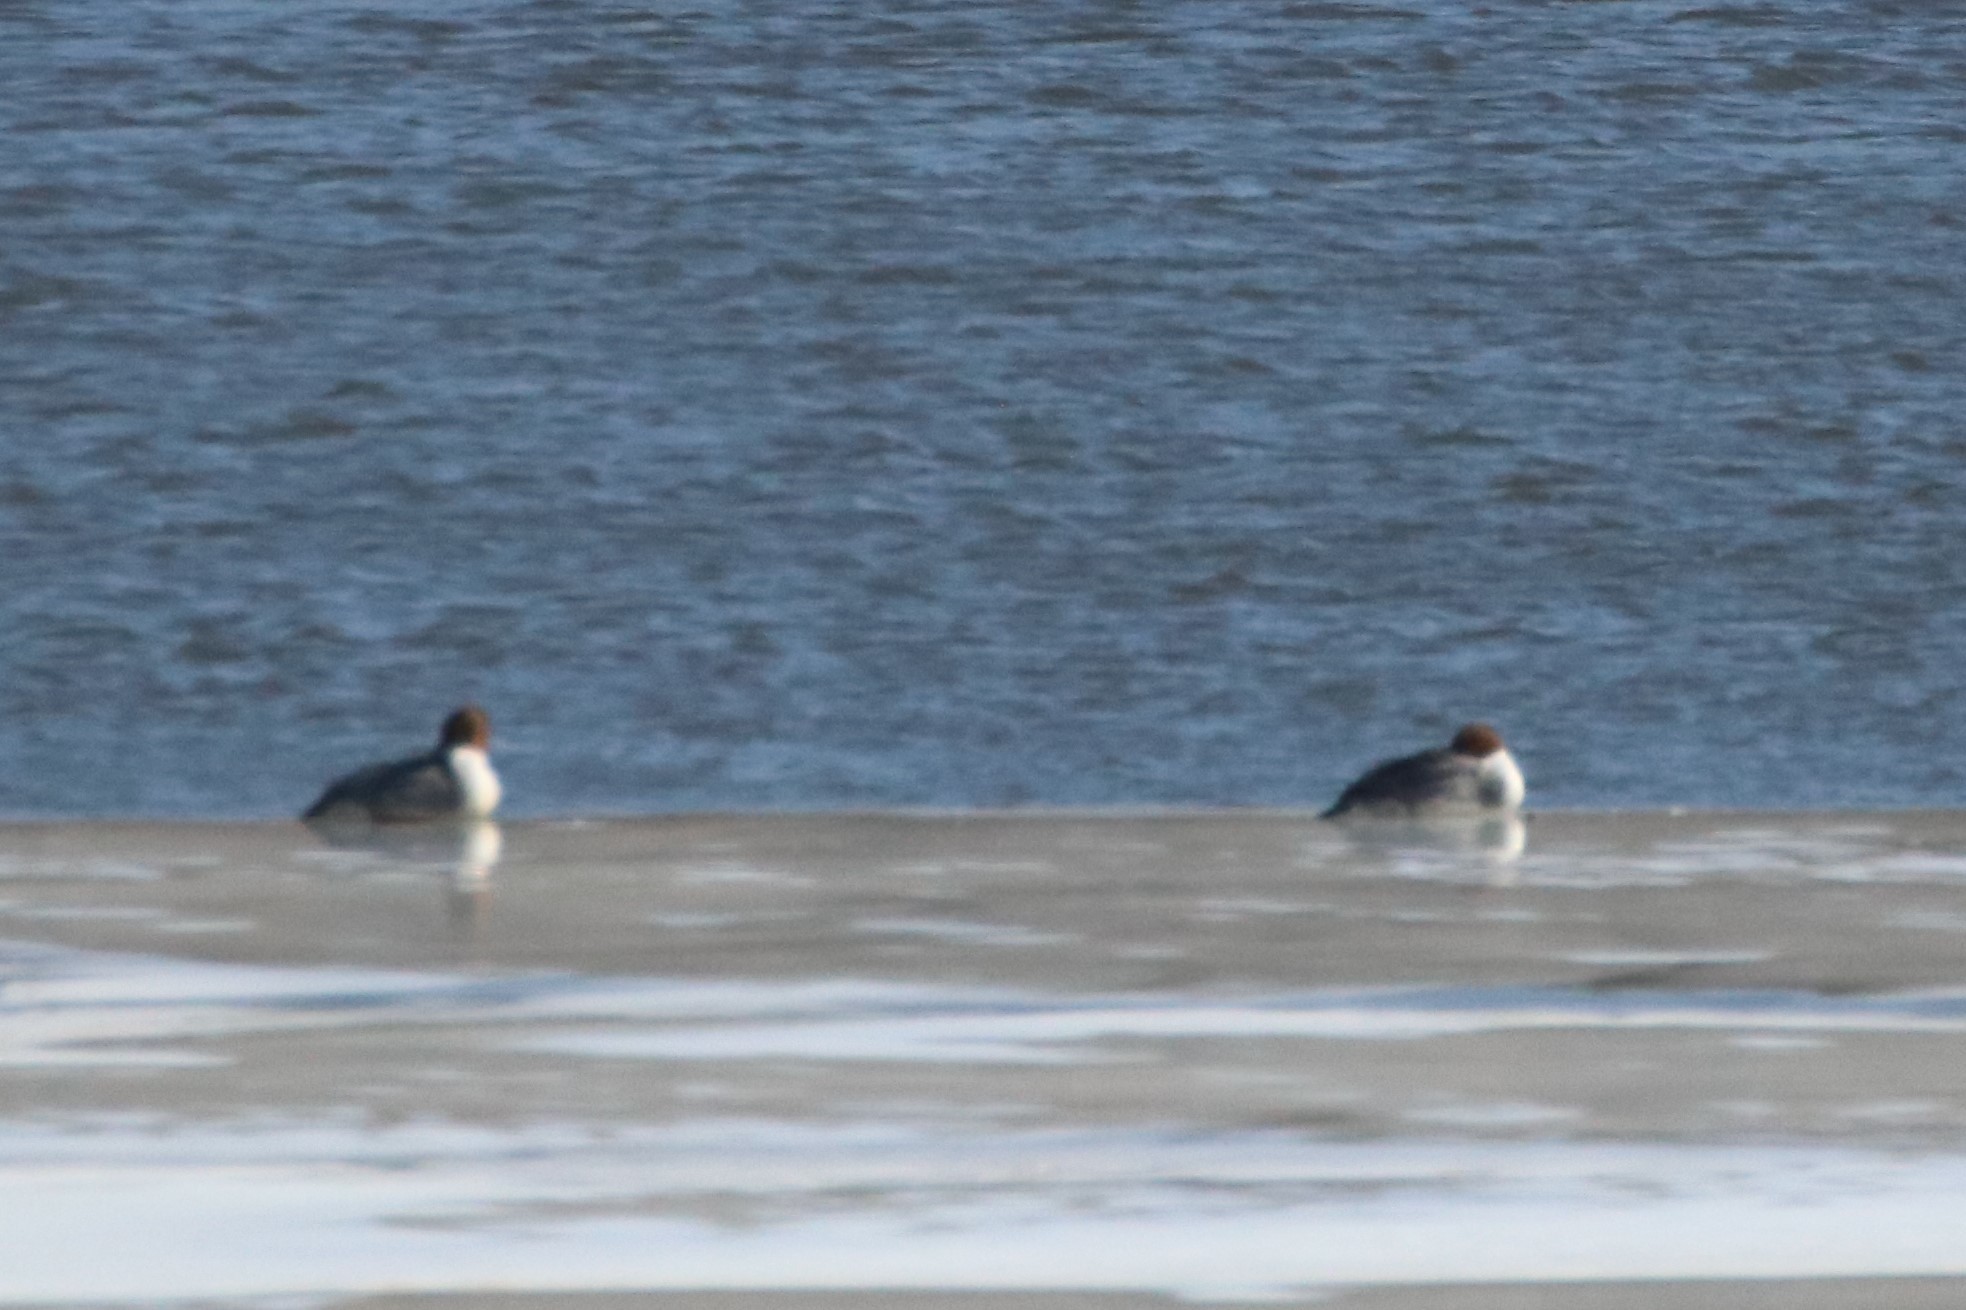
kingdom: Animalia
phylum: Chordata
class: Aves
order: Anseriformes
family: Anatidae
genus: Mergus
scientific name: Mergus merganser
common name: Common merganser
